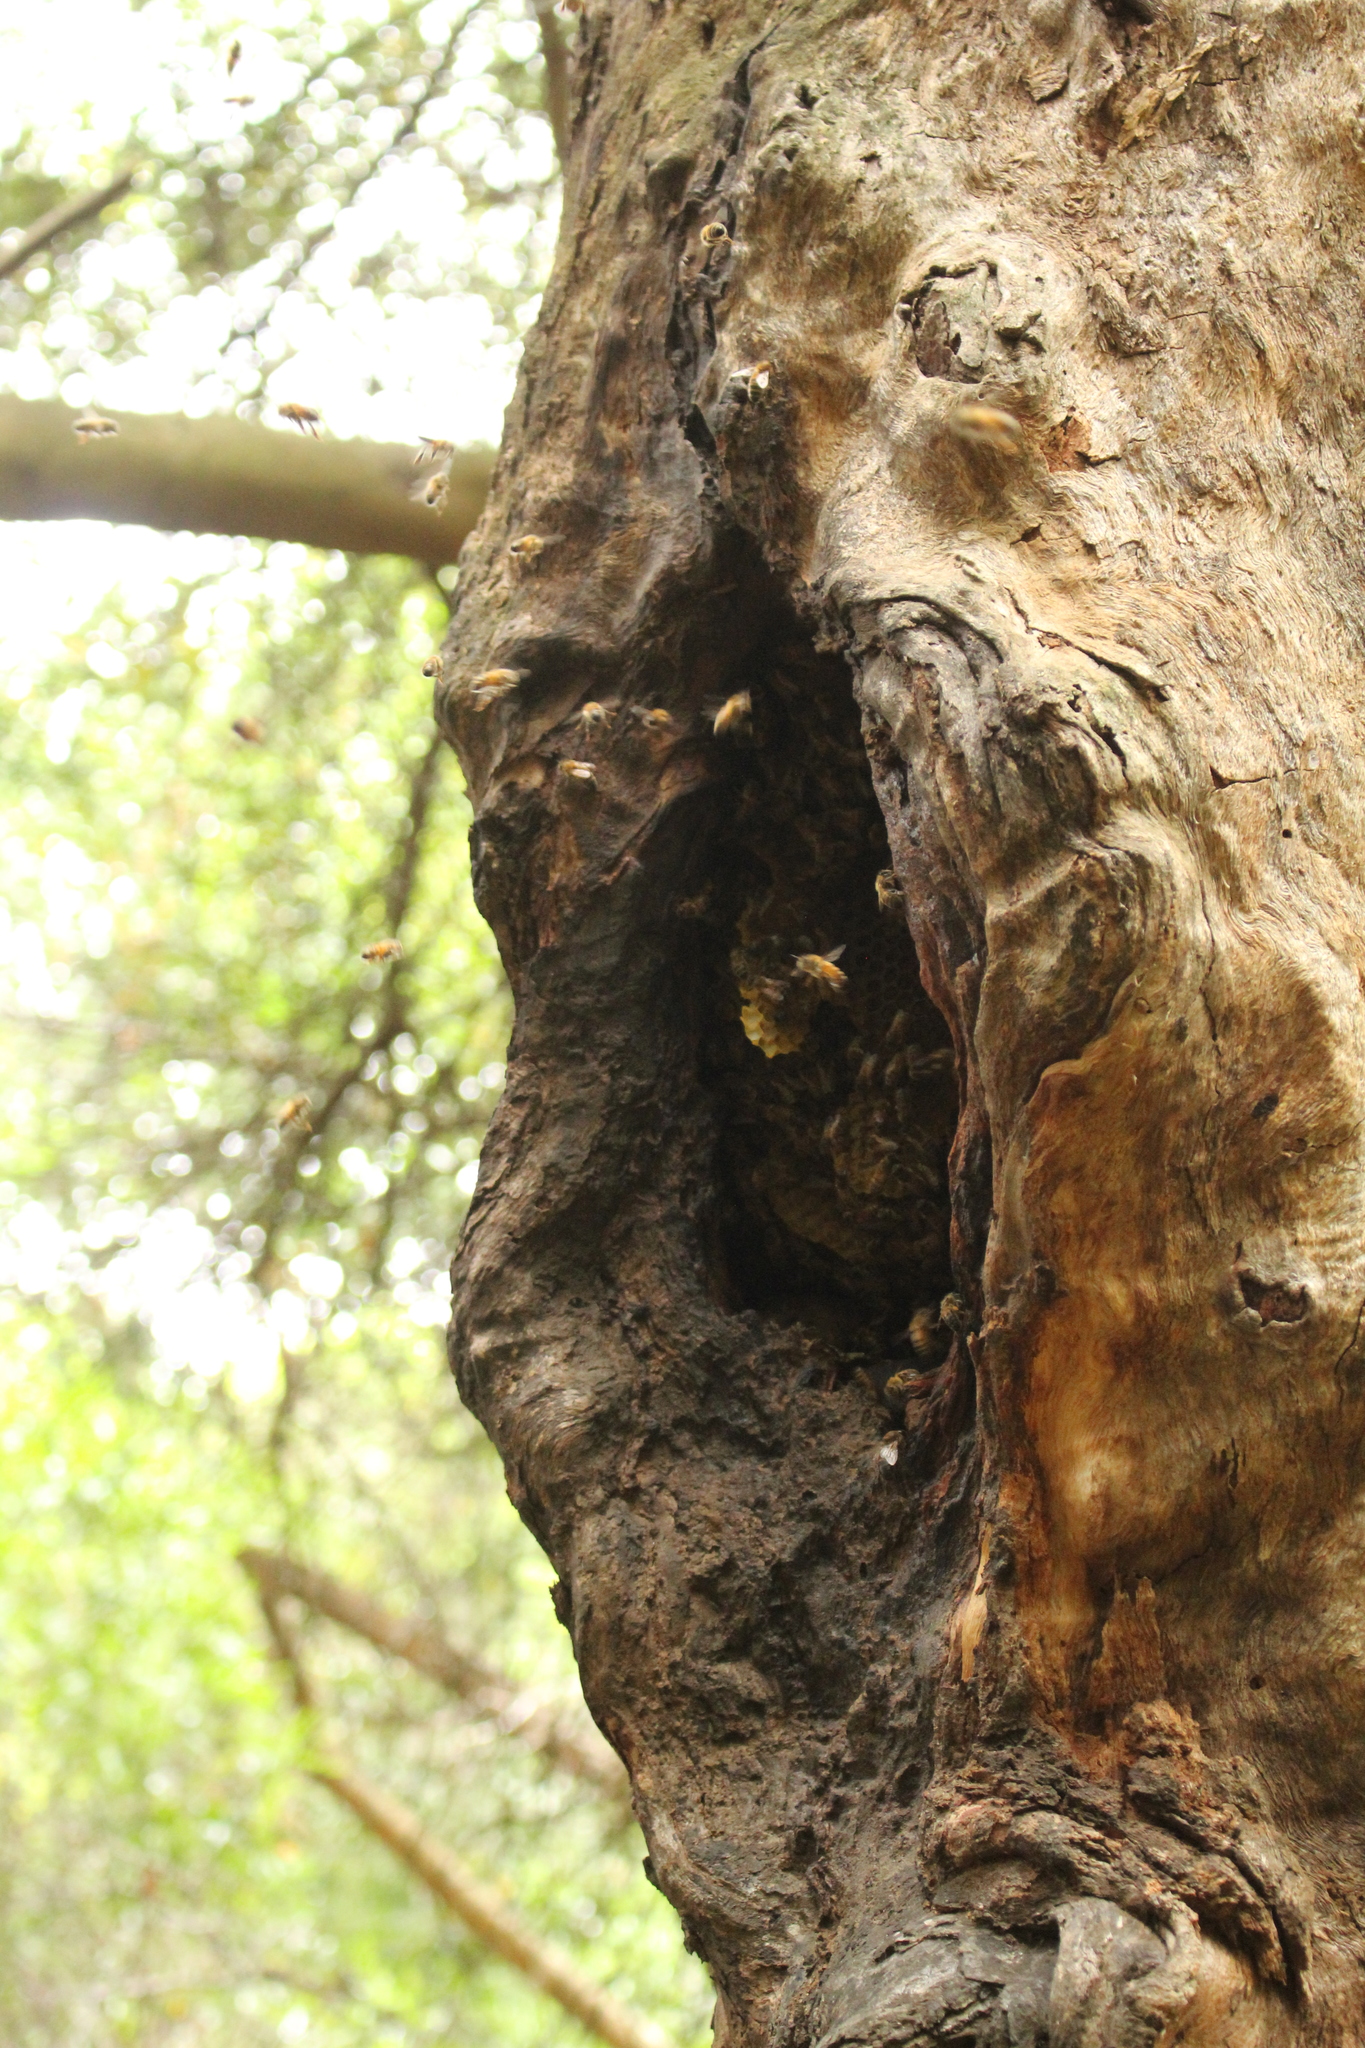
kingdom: Animalia
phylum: Arthropoda
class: Insecta
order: Hymenoptera
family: Apidae
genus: Apis
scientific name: Apis mellifera
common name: Honey bee
